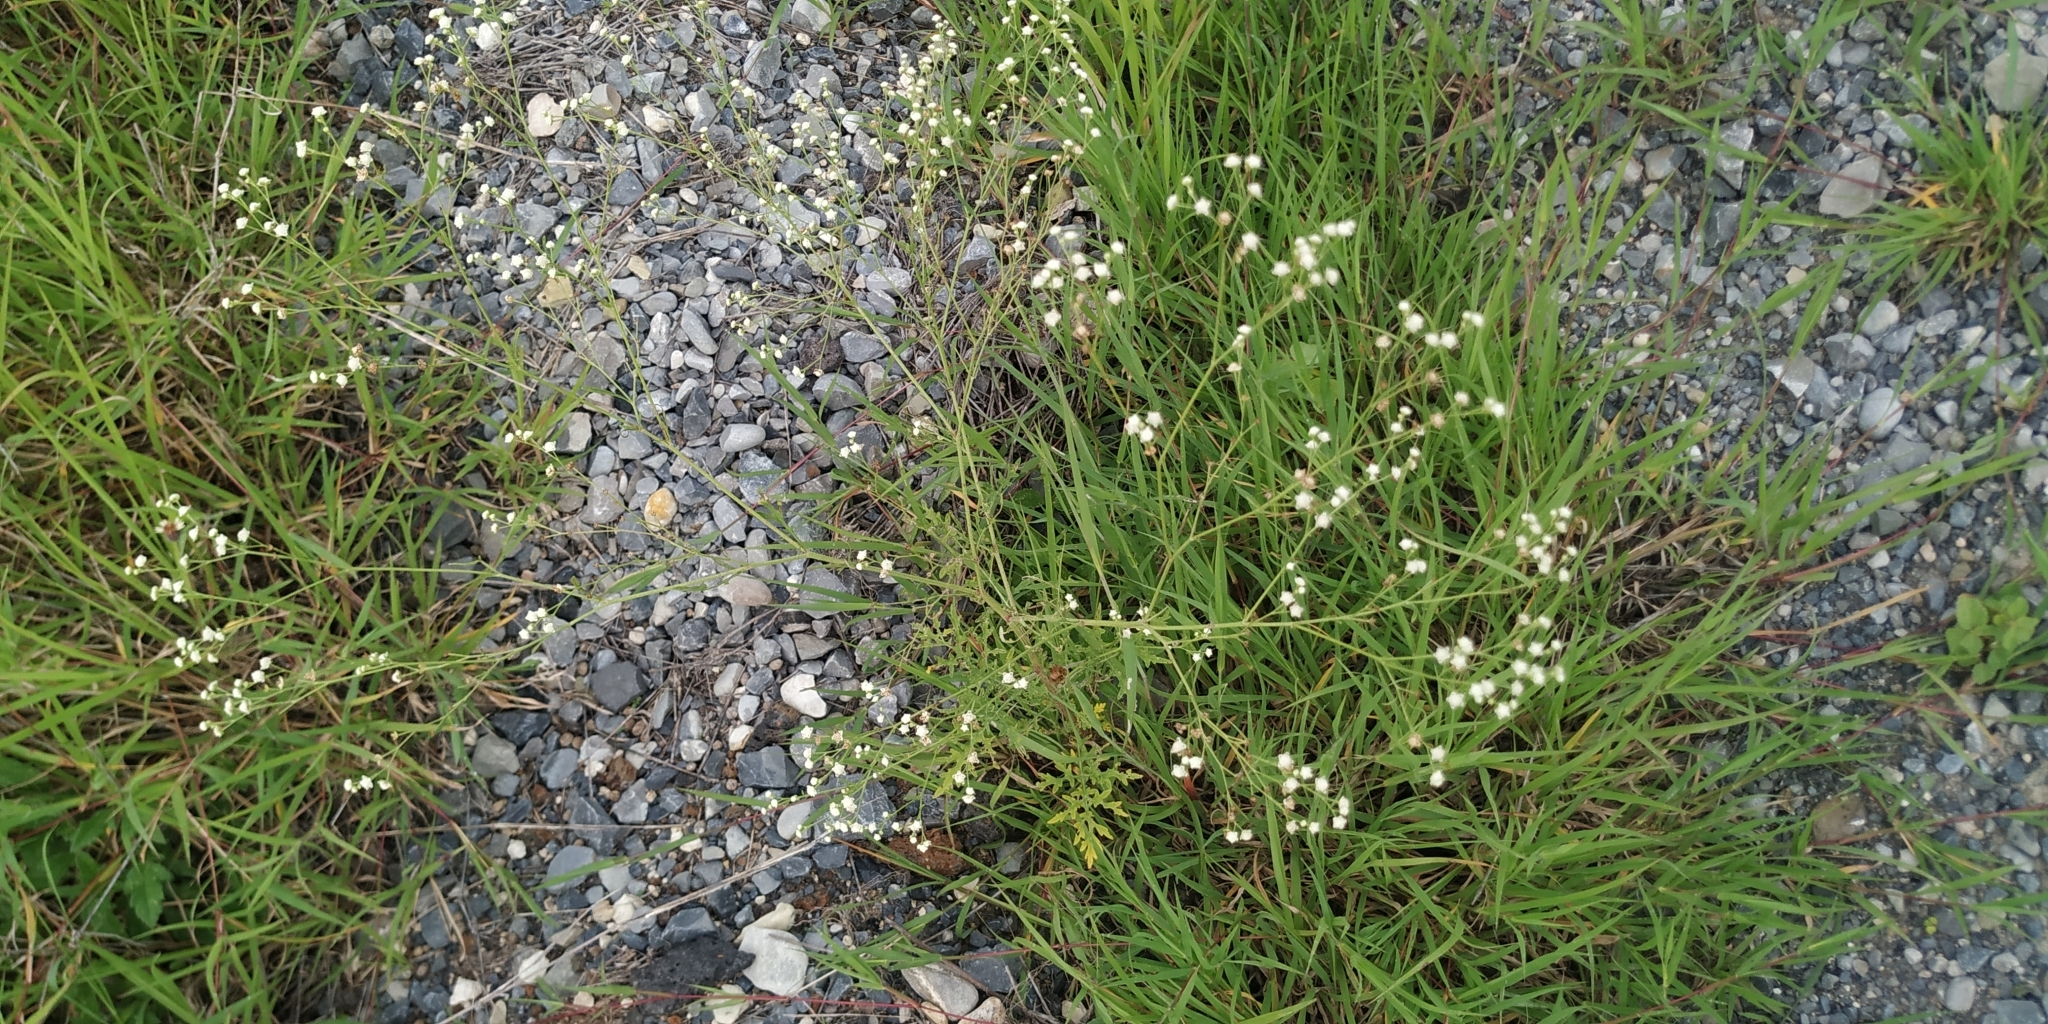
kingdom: Plantae
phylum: Tracheophyta
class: Magnoliopsida
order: Asterales
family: Asteraceae
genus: Parthenium
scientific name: Parthenium hysterophorus
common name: Santa maria feverfew
